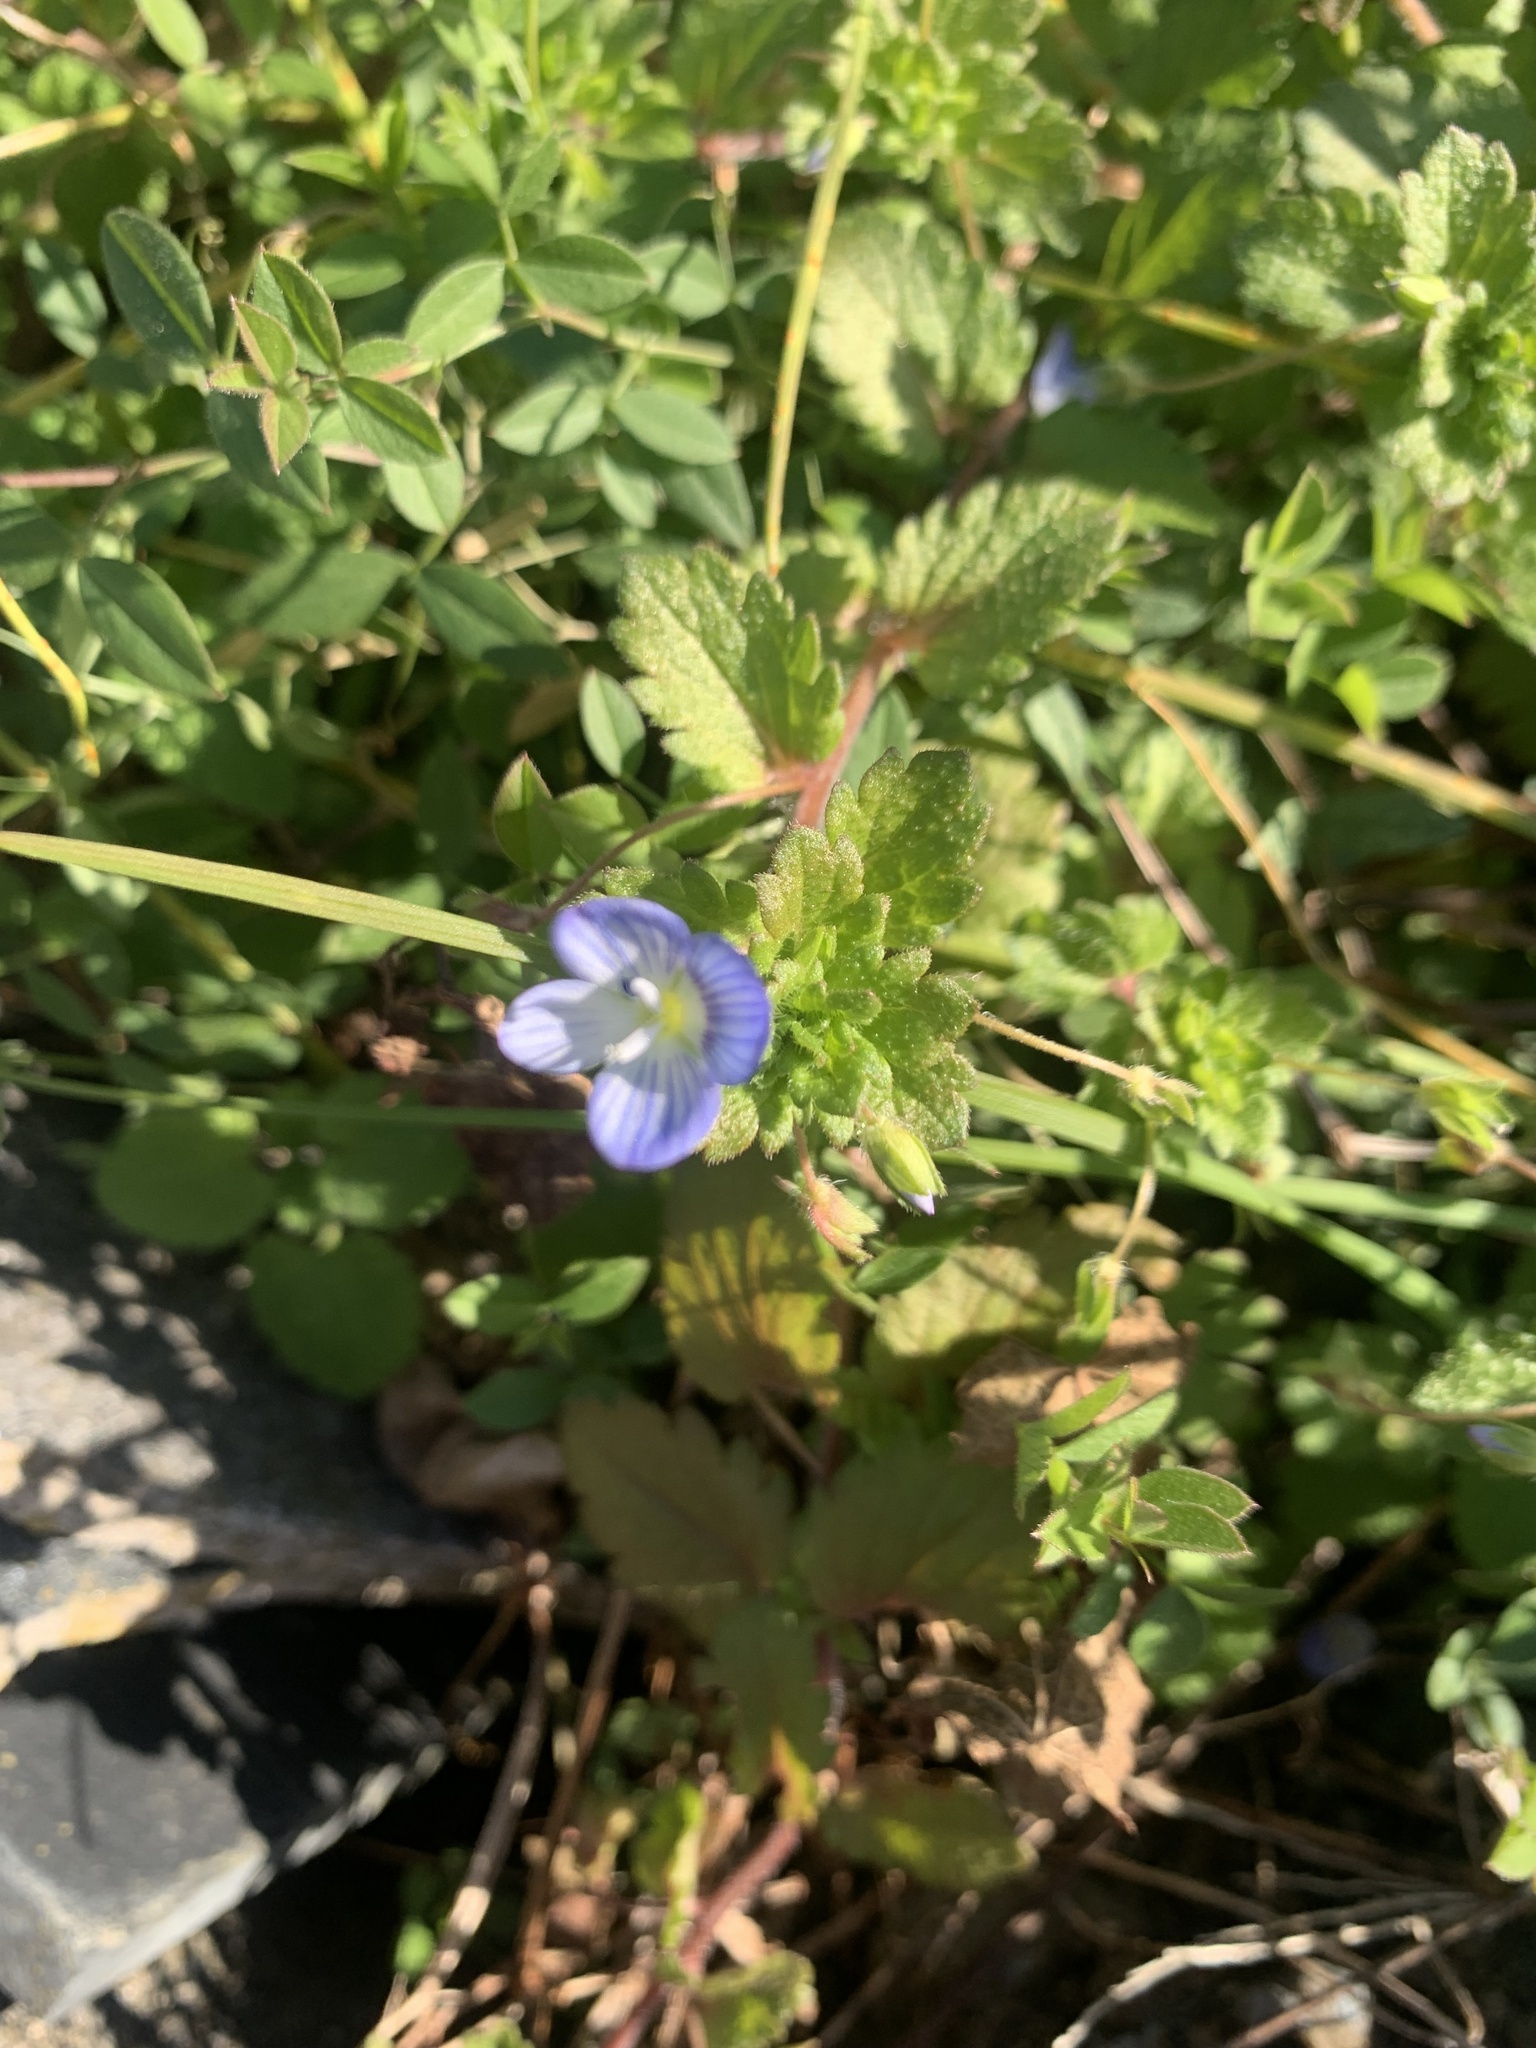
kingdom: Plantae
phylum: Tracheophyta
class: Magnoliopsida
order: Lamiales
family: Plantaginaceae
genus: Veronica
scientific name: Veronica persica
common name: Common field-speedwell
